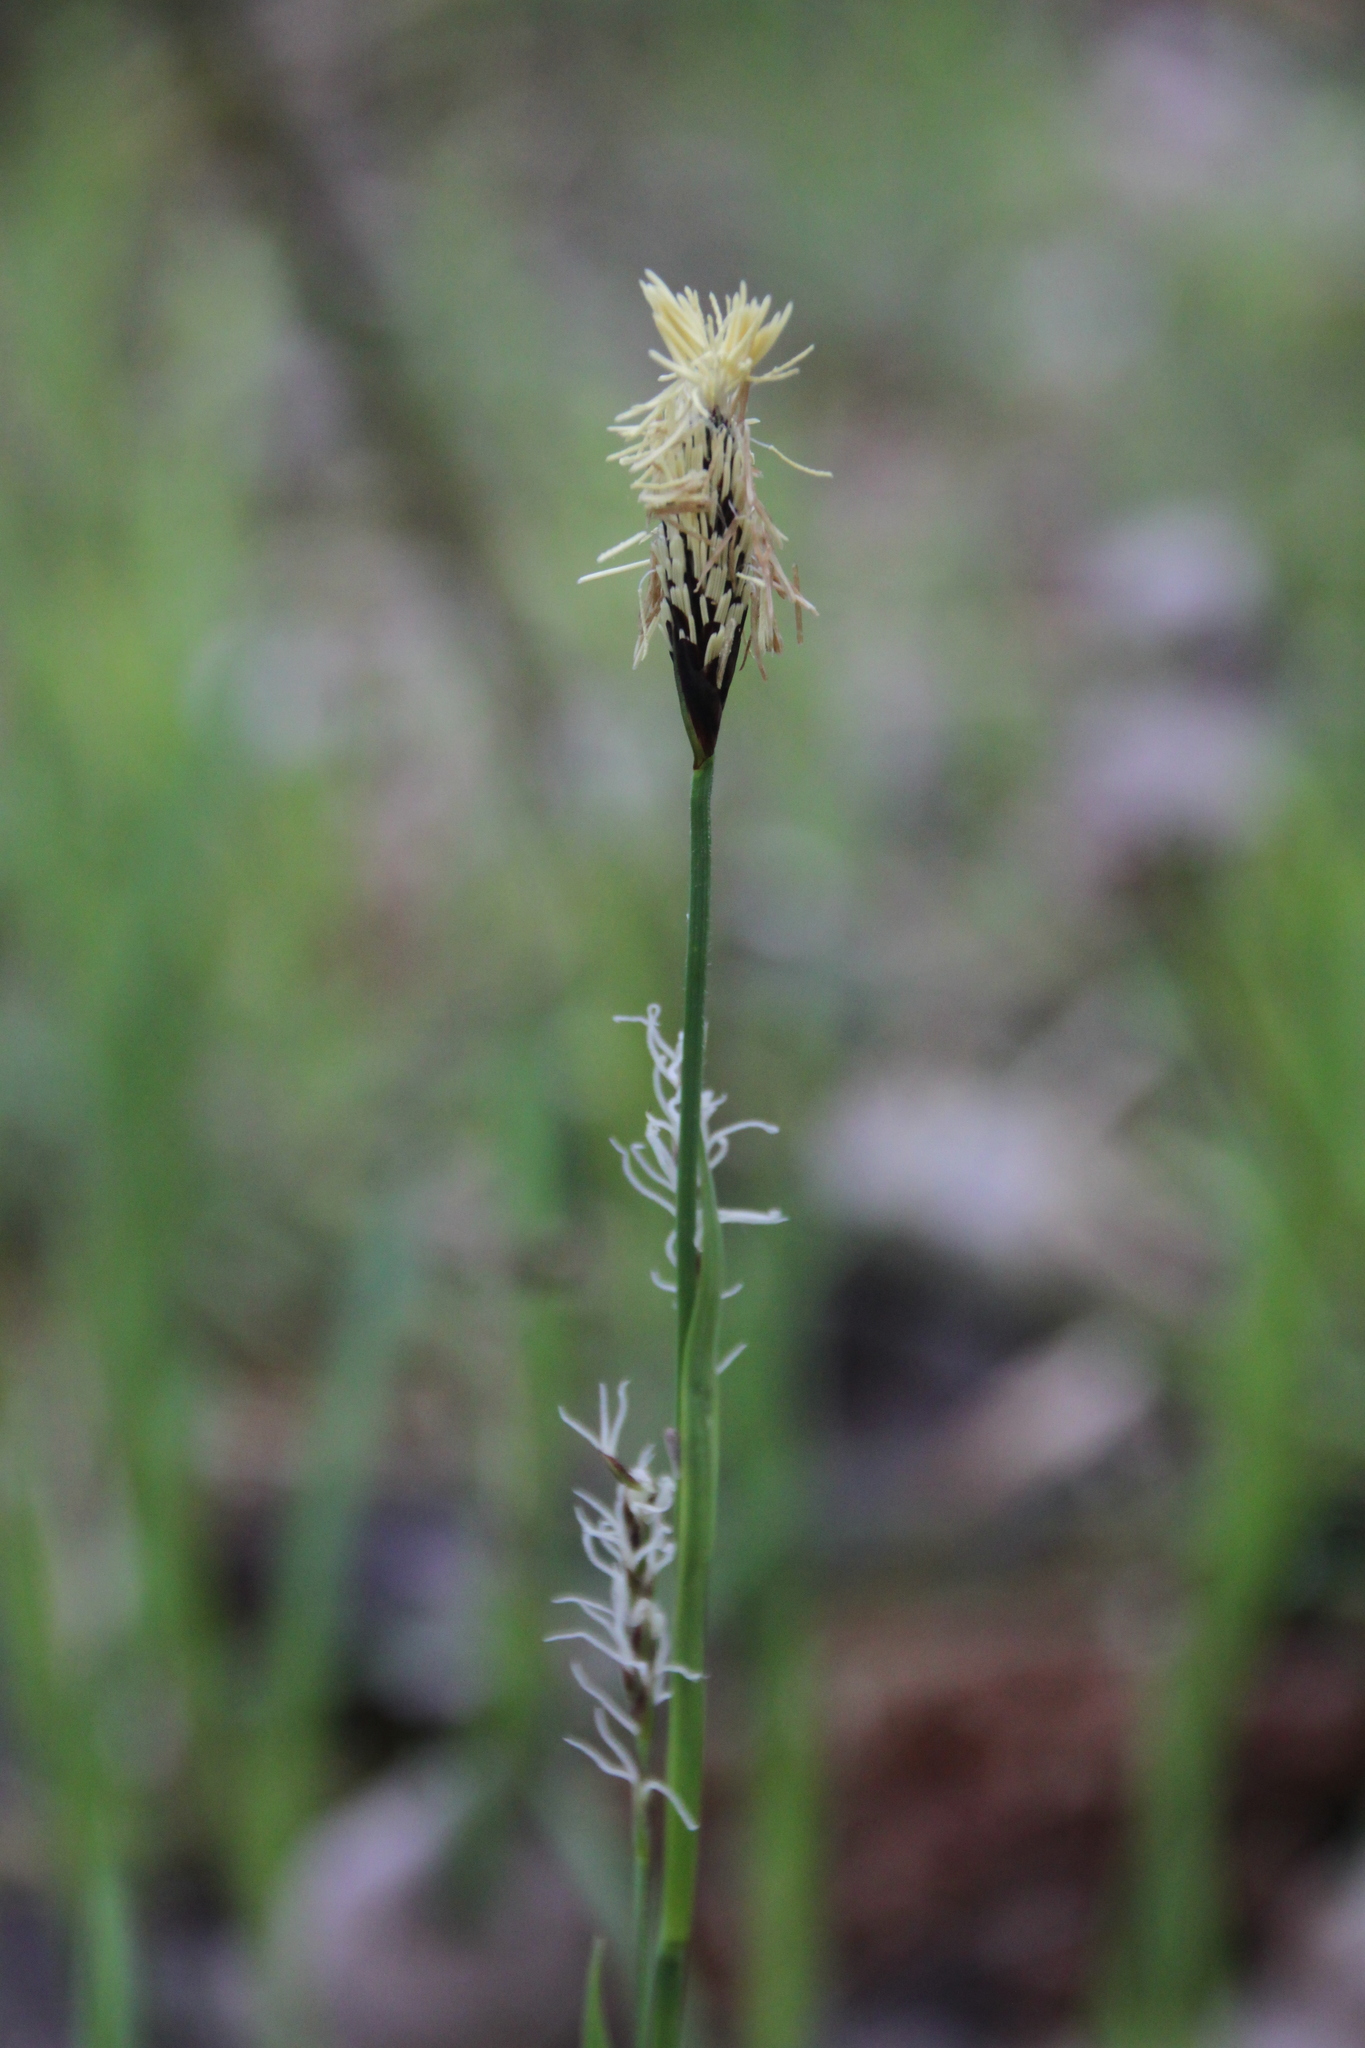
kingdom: Plantae
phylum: Tracheophyta
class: Liliopsida
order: Poales
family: Cyperaceae
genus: Carex
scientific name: Carex pilosa
